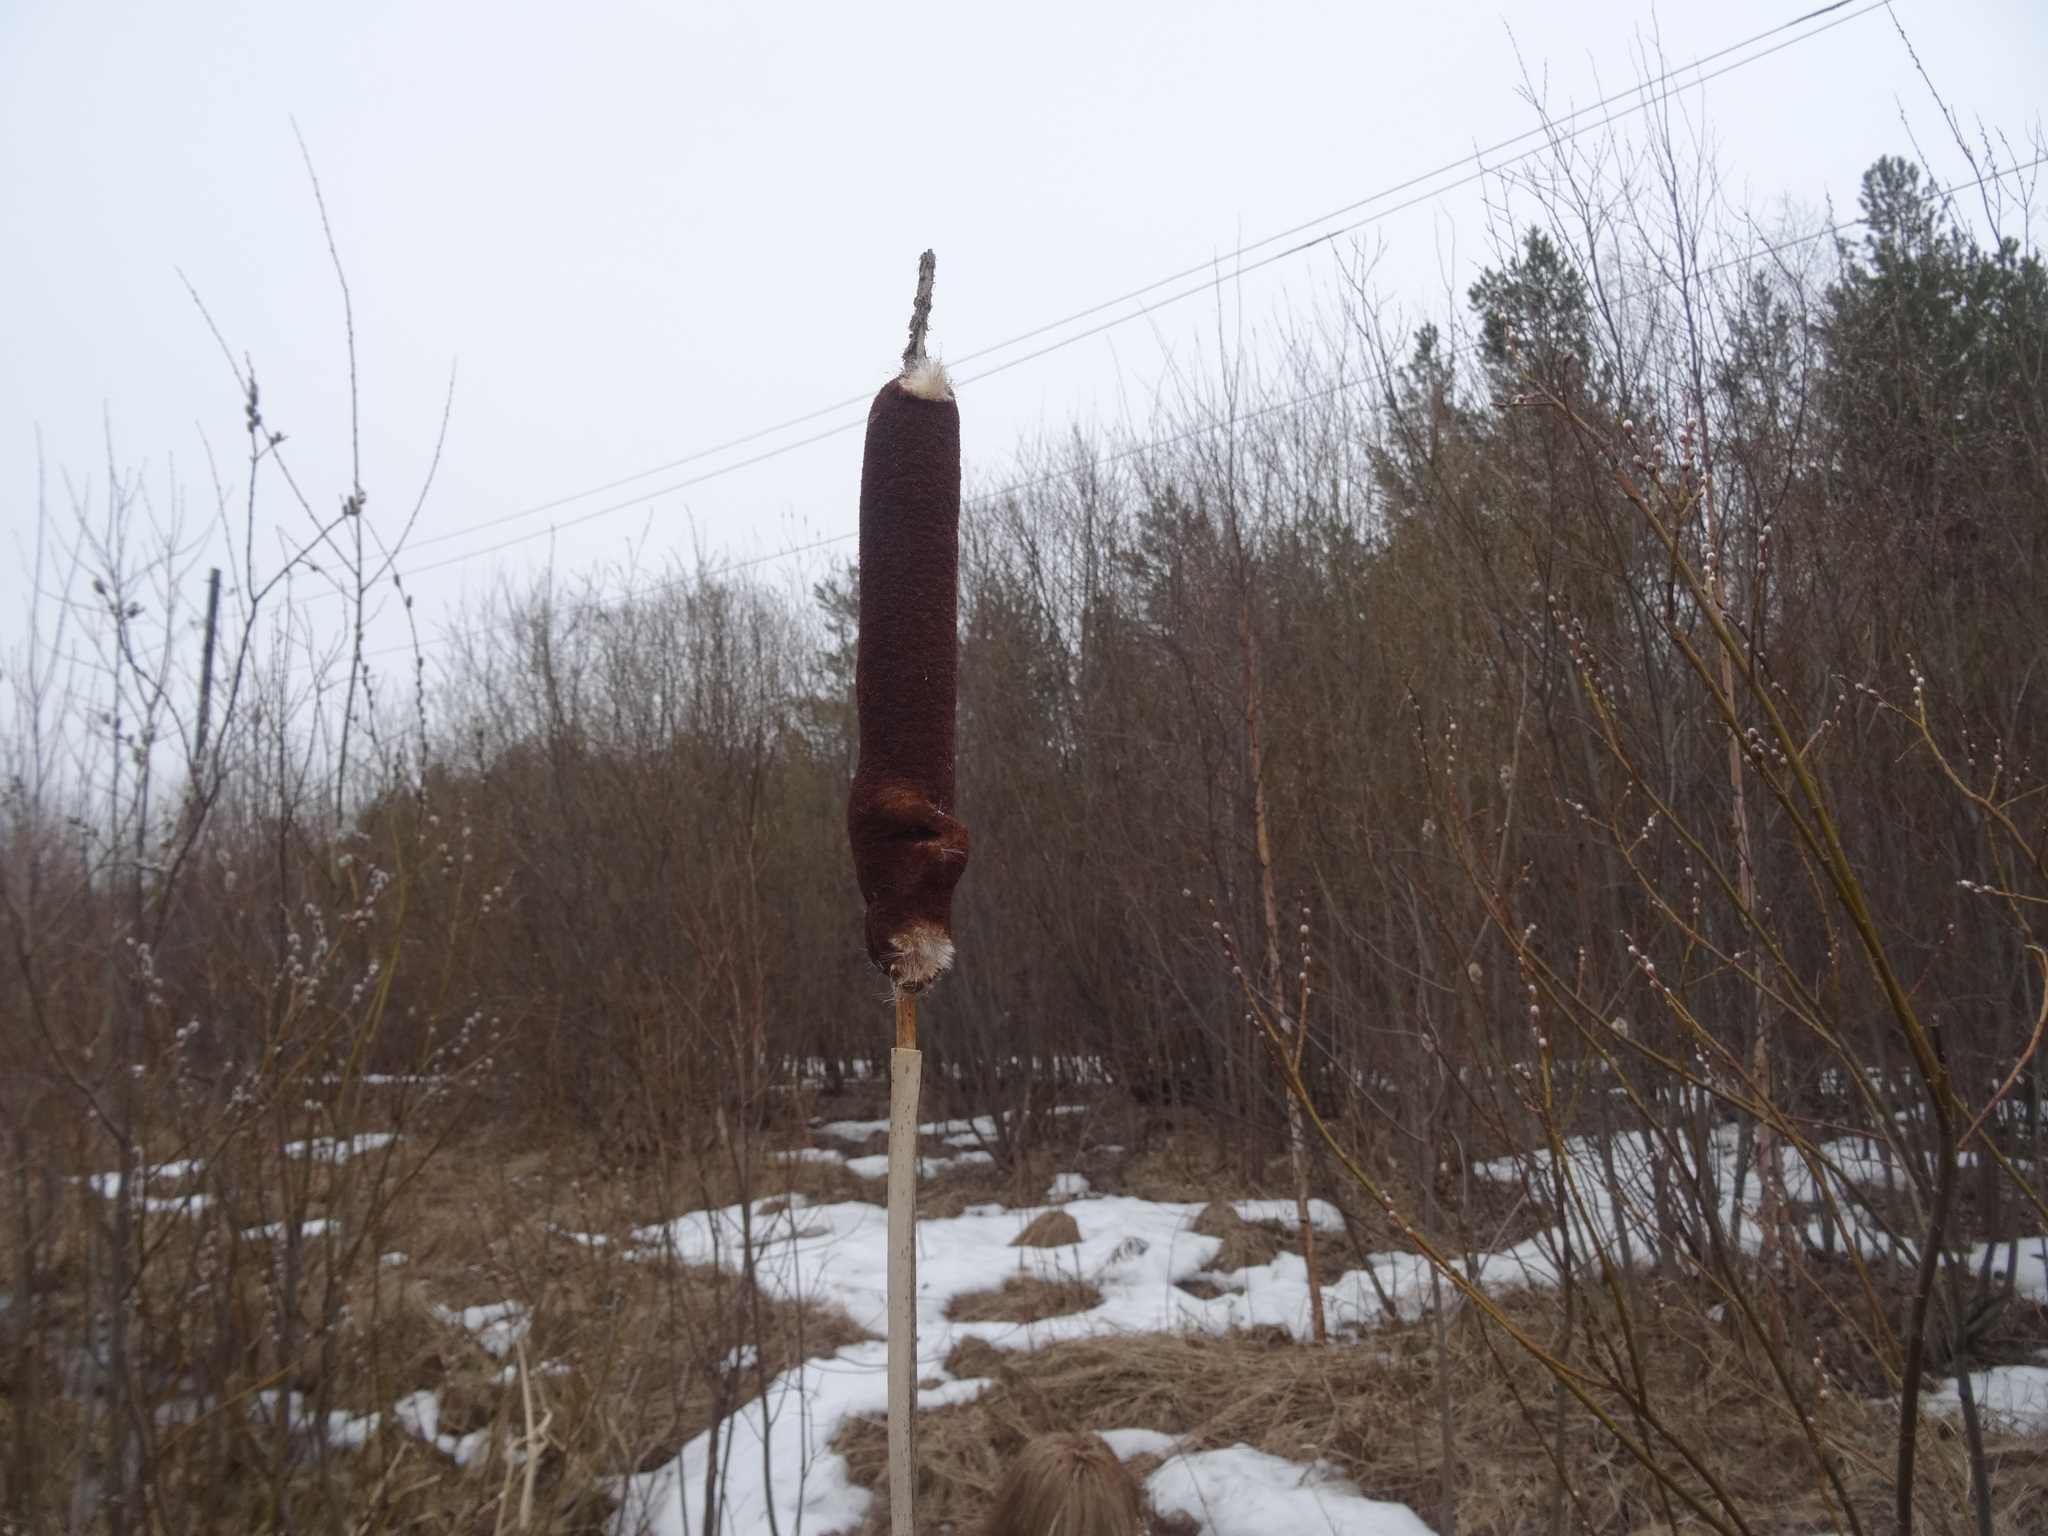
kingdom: Plantae
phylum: Tracheophyta
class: Liliopsida
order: Poales
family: Typhaceae
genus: Typha
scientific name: Typha latifolia
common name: Broadleaf cattail
